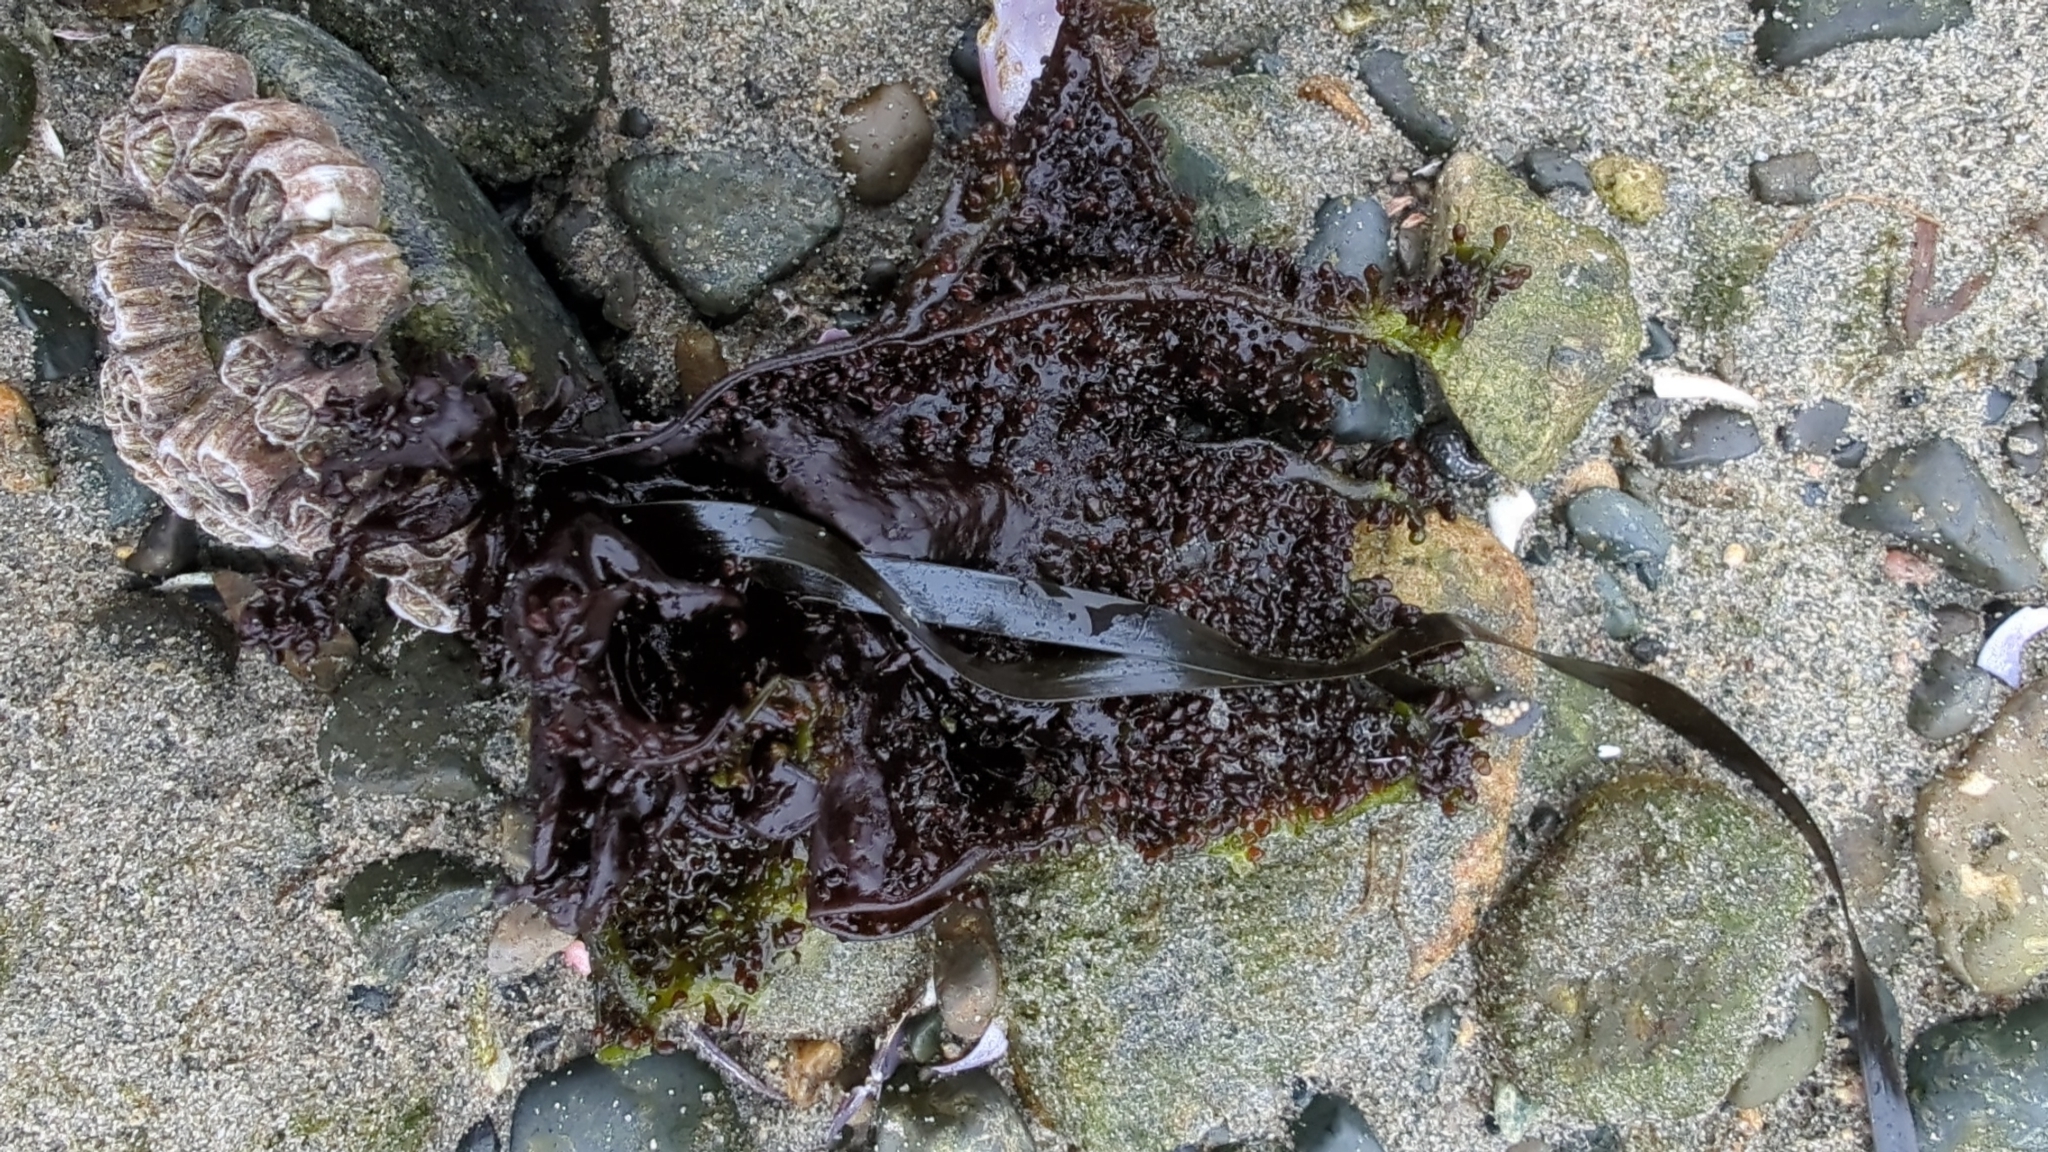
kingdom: Plantae
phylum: Rhodophyta
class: Florideophyceae
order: Gigartinales
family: Phyllophoraceae
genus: Mastocarpus
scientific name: Mastocarpus papillatus
